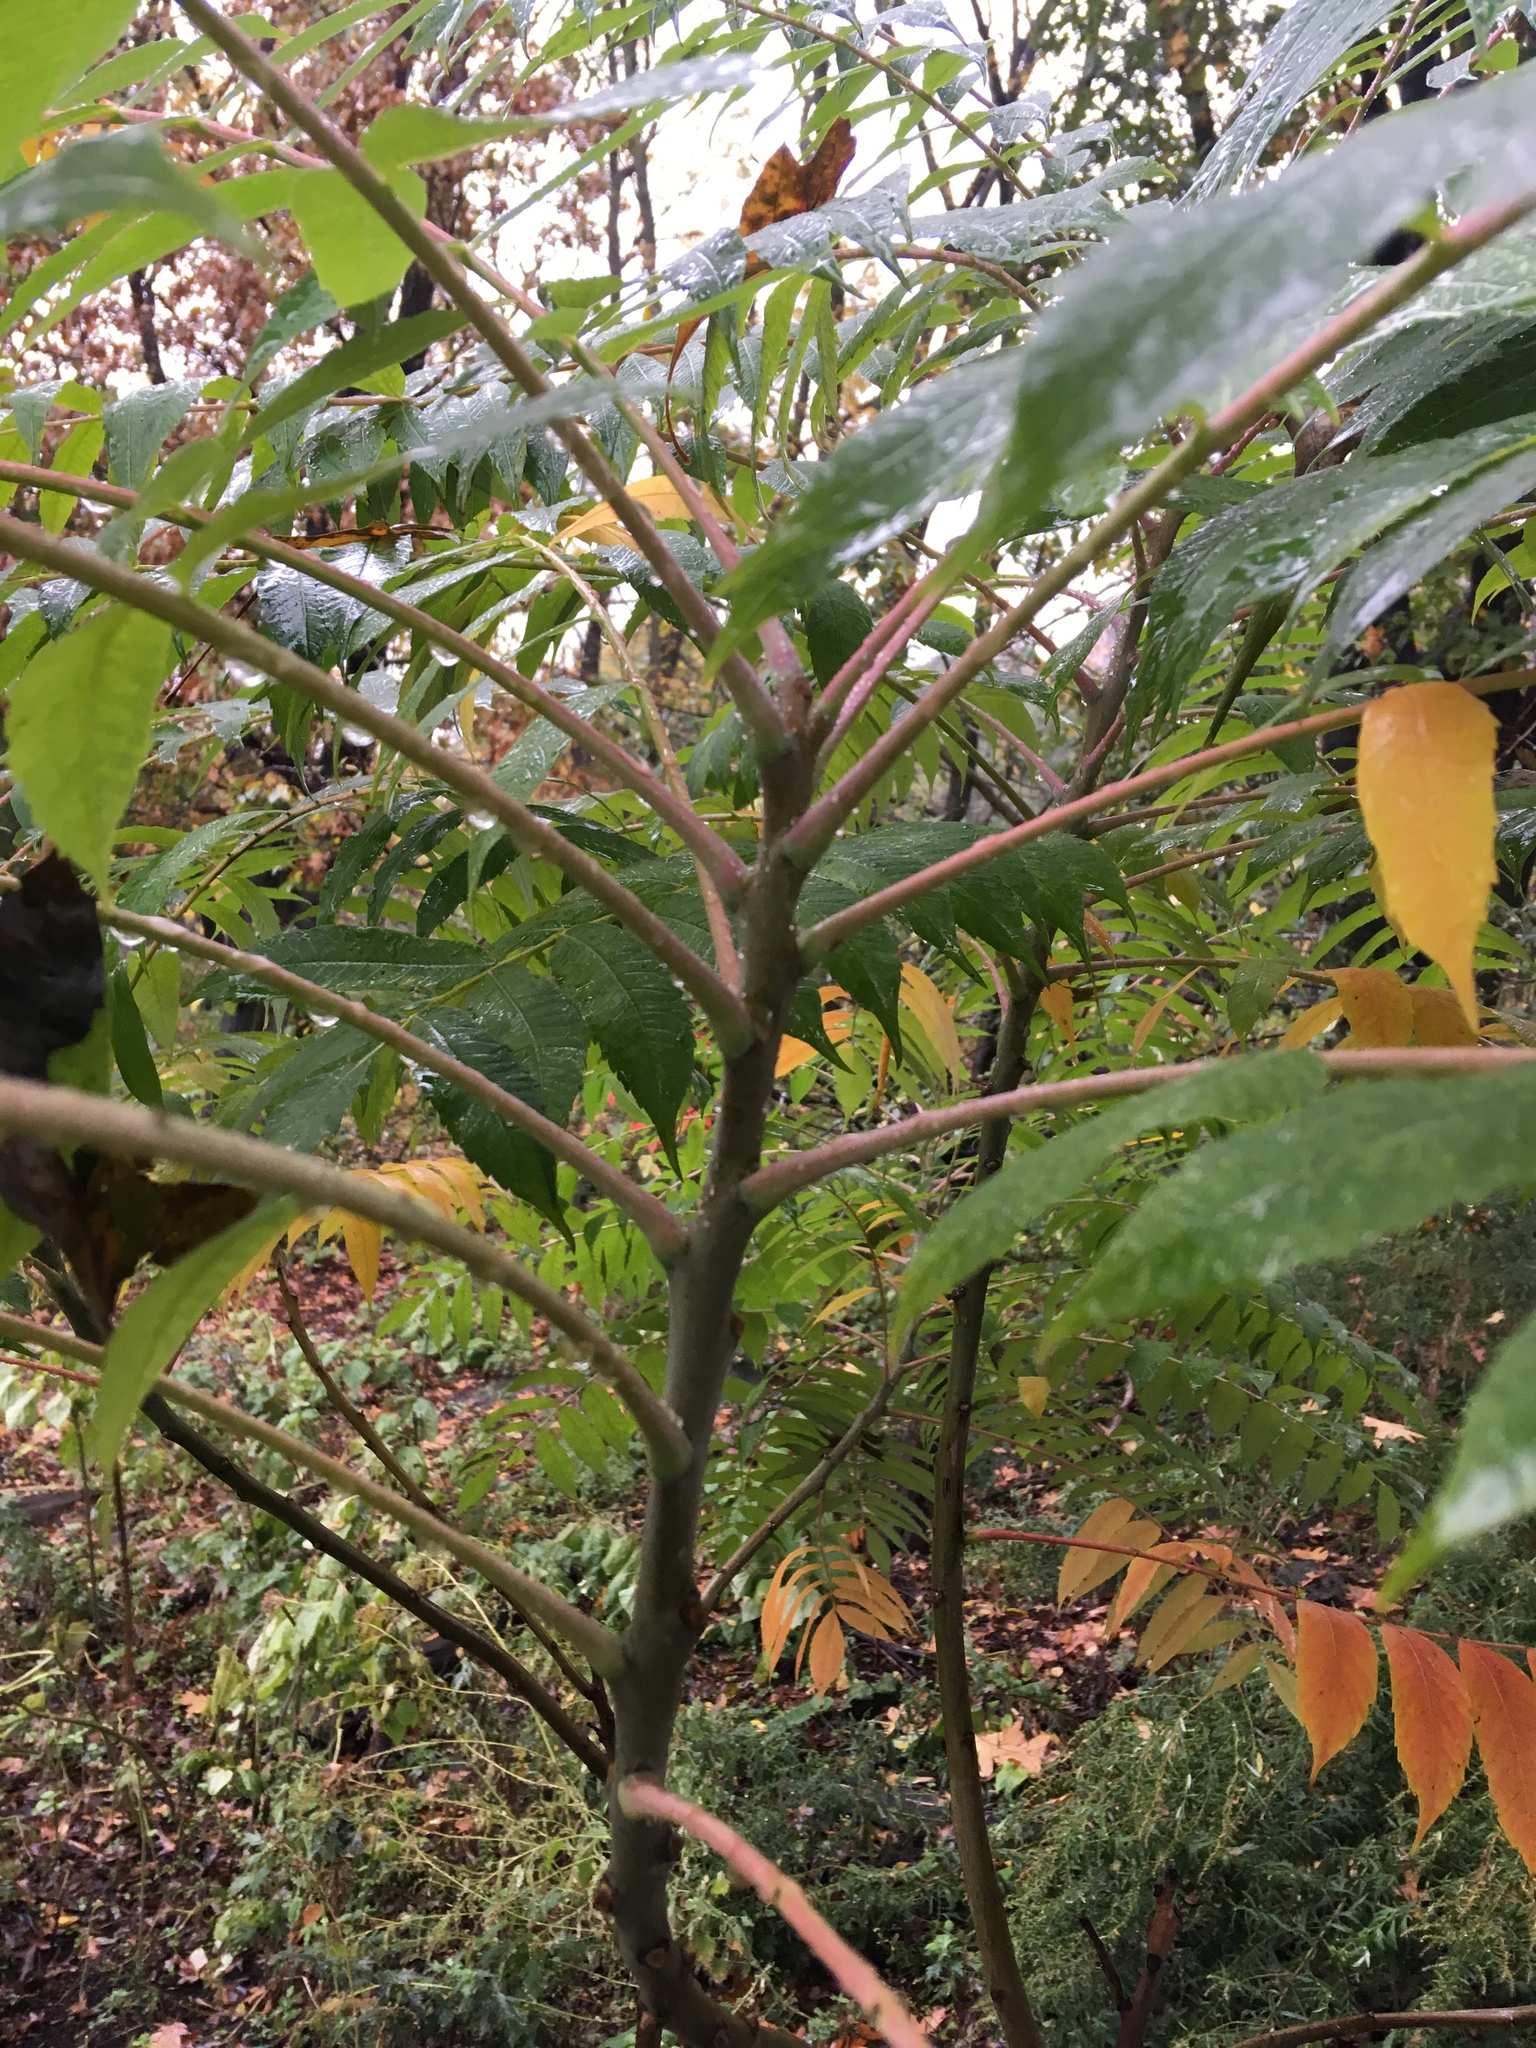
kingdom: Plantae
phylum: Tracheophyta
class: Magnoliopsida
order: Sapindales
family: Anacardiaceae
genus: Rhus
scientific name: Rhus glabra
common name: Scarlet sumac
